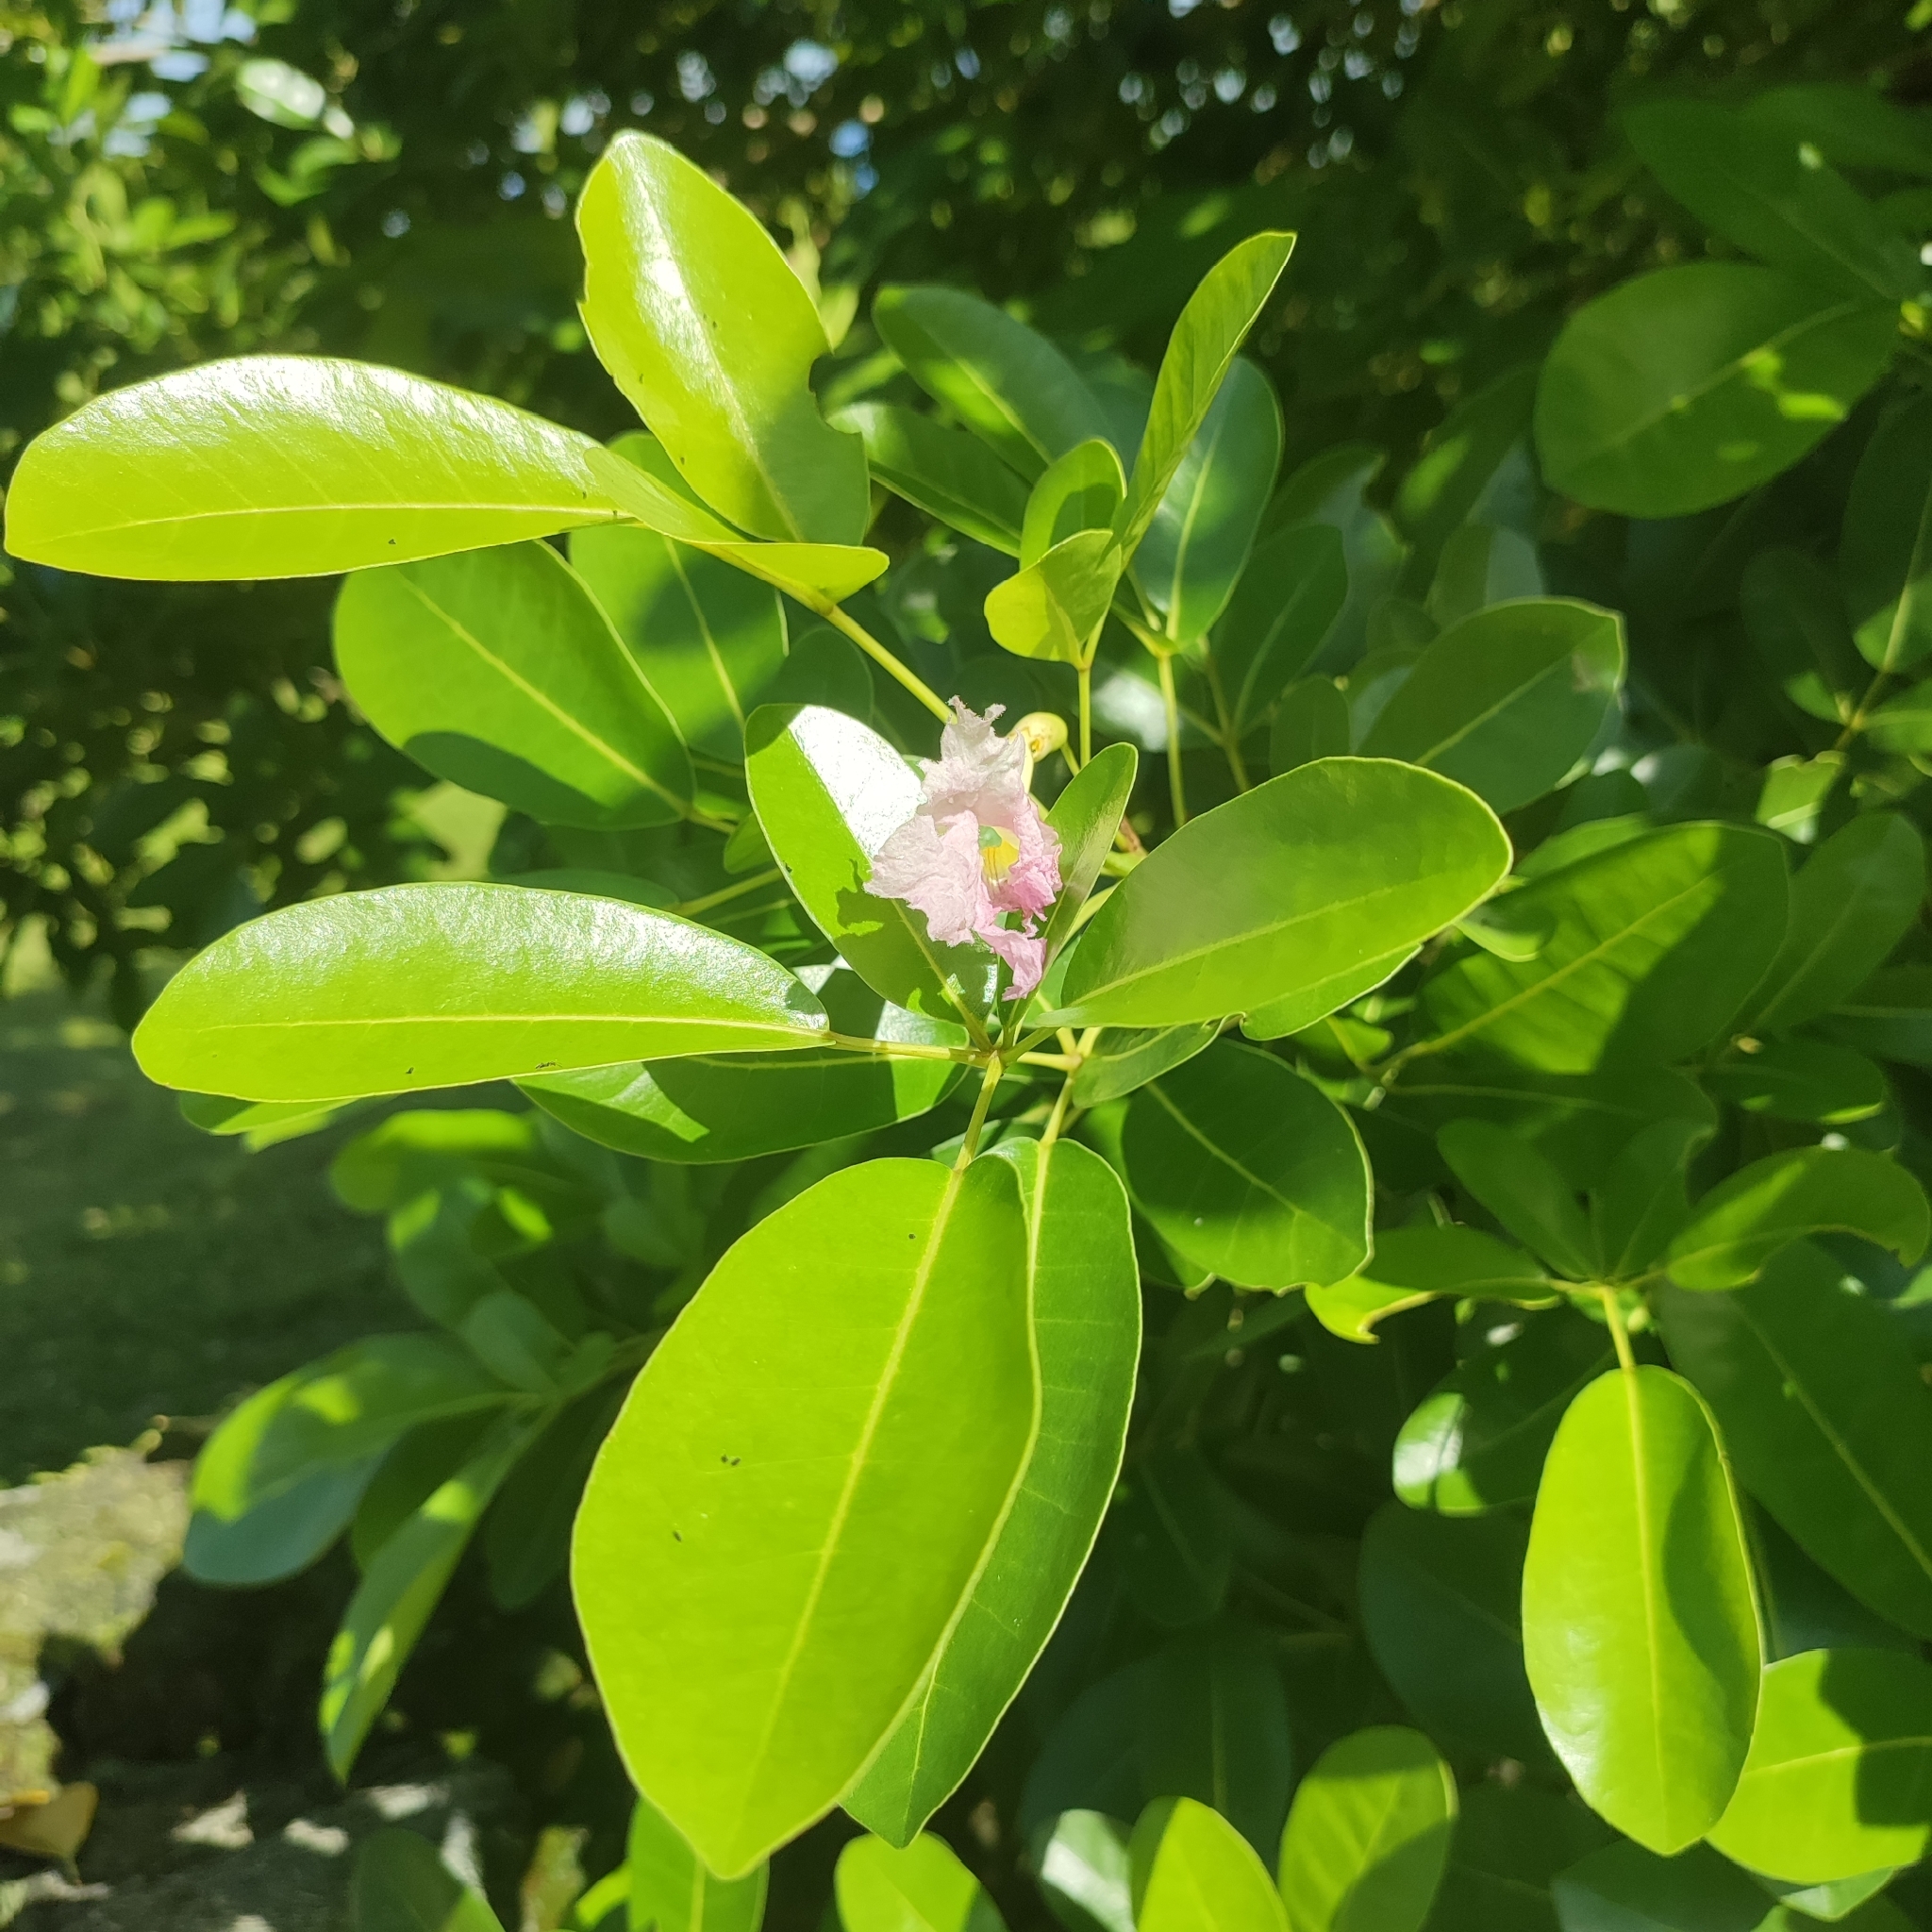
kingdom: Plantae
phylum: Tracheophyta
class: Magnoliopsida
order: Lamiales
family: Bignoniaceae
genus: Tabebuia
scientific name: Tabebuia heterophylla
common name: White cedar
